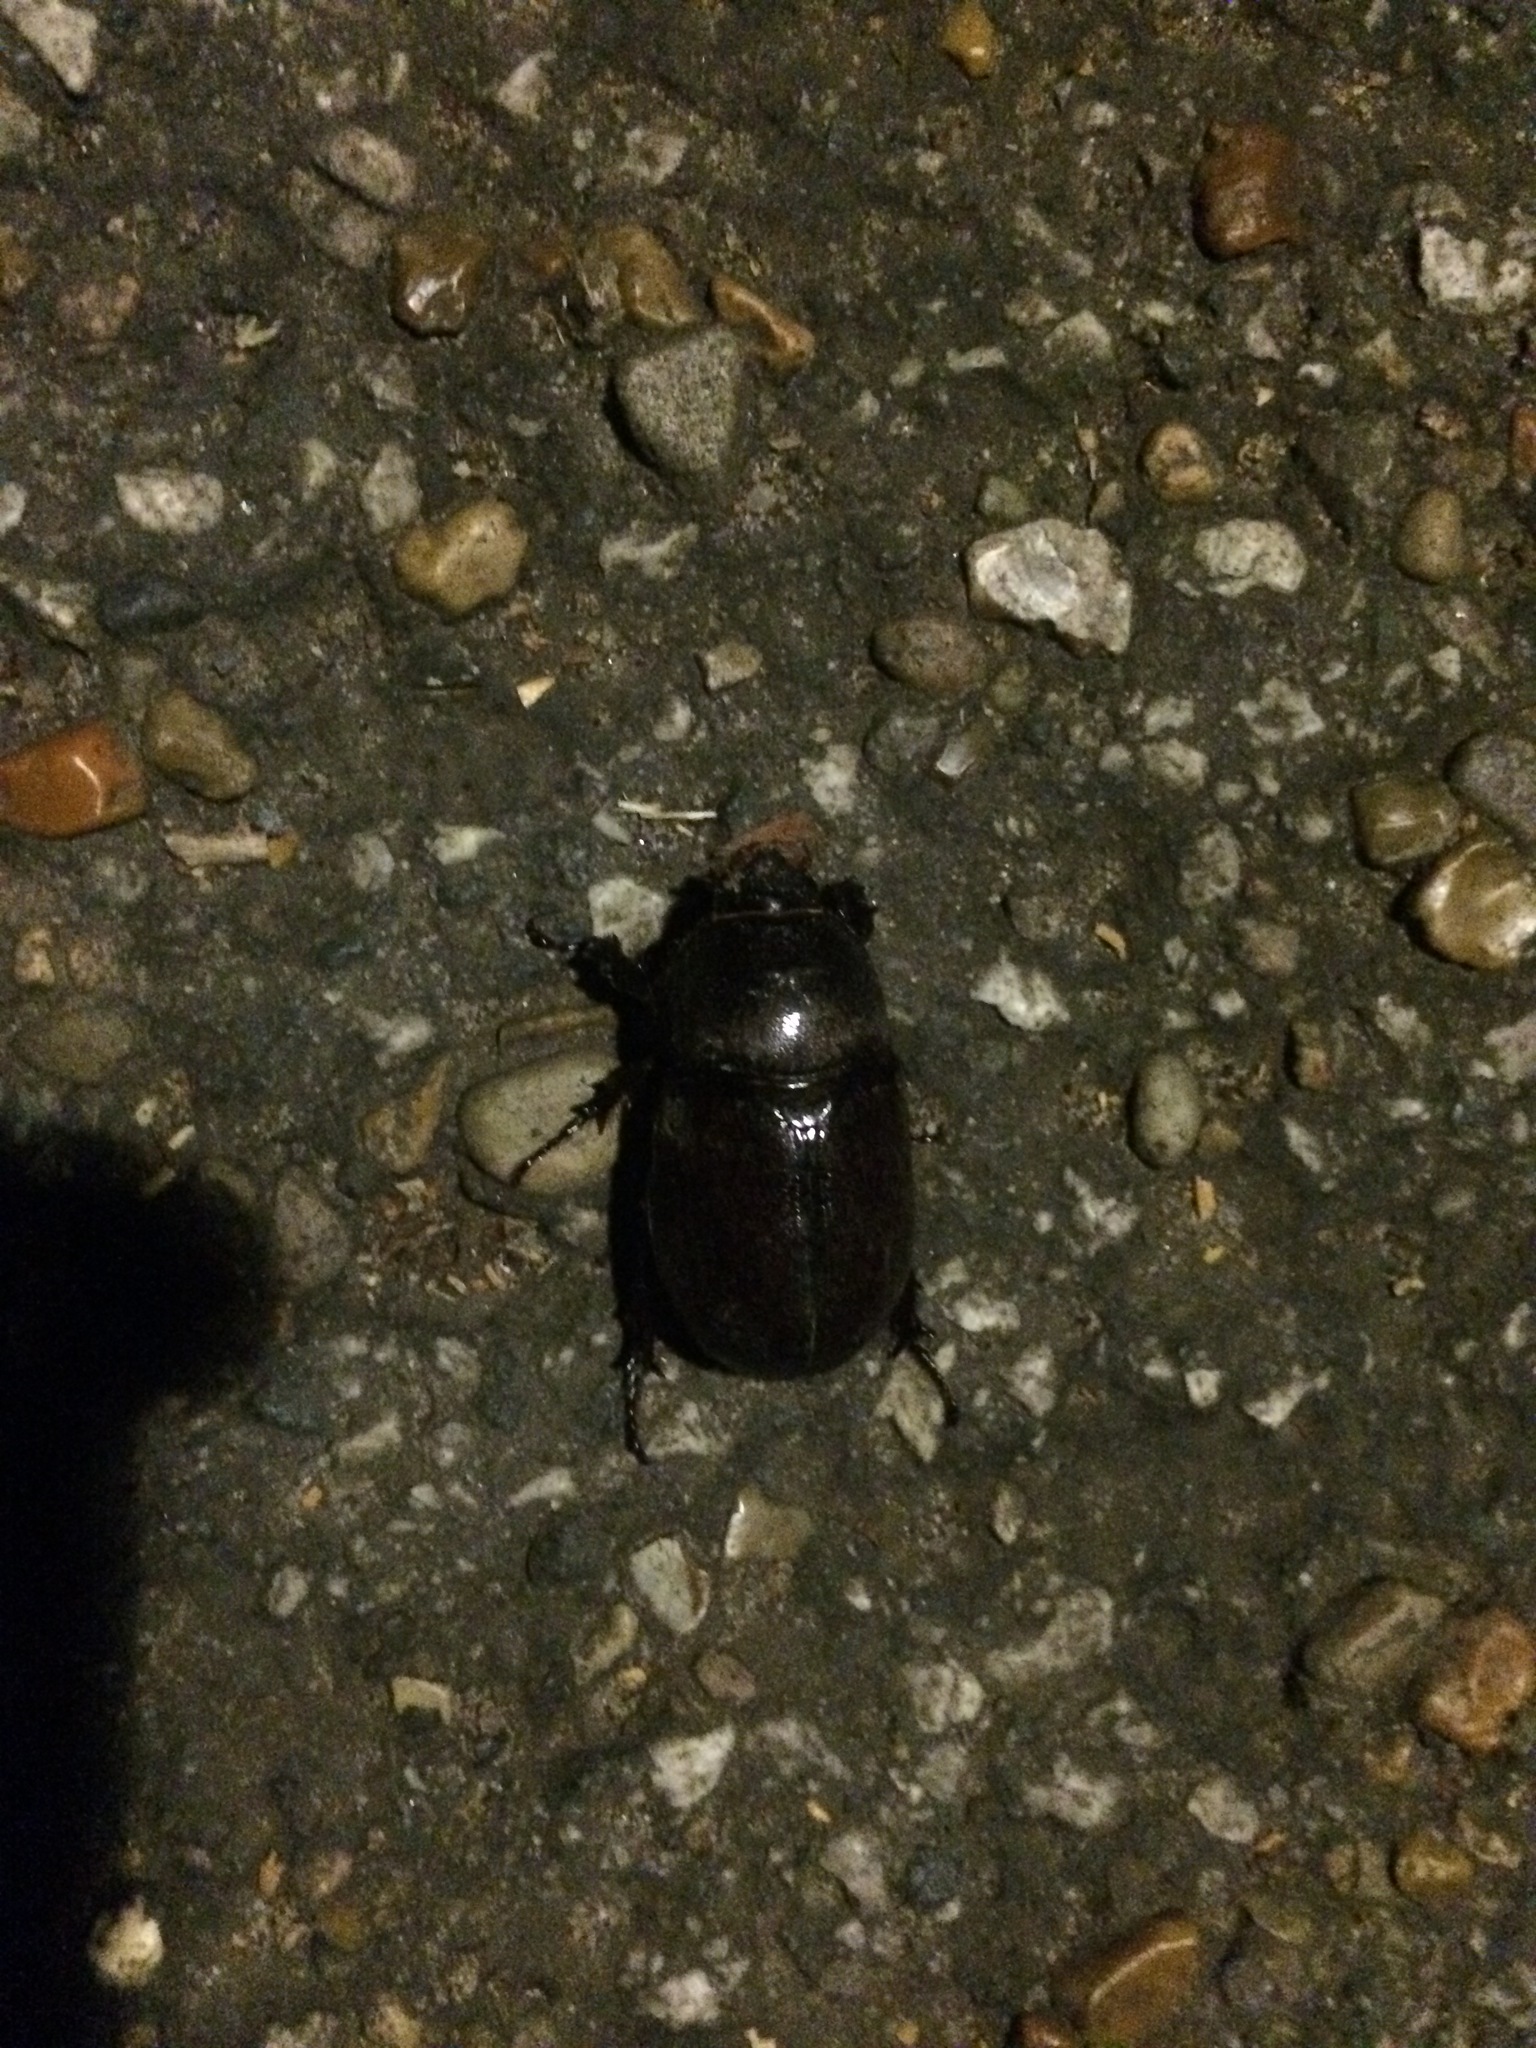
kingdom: Animalia
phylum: Arthropoda
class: Insecta
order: Coleoptera
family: Scarabaeidae
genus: Oryctes
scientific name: Oryctes nasicornis
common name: European rhinoceros beetle
